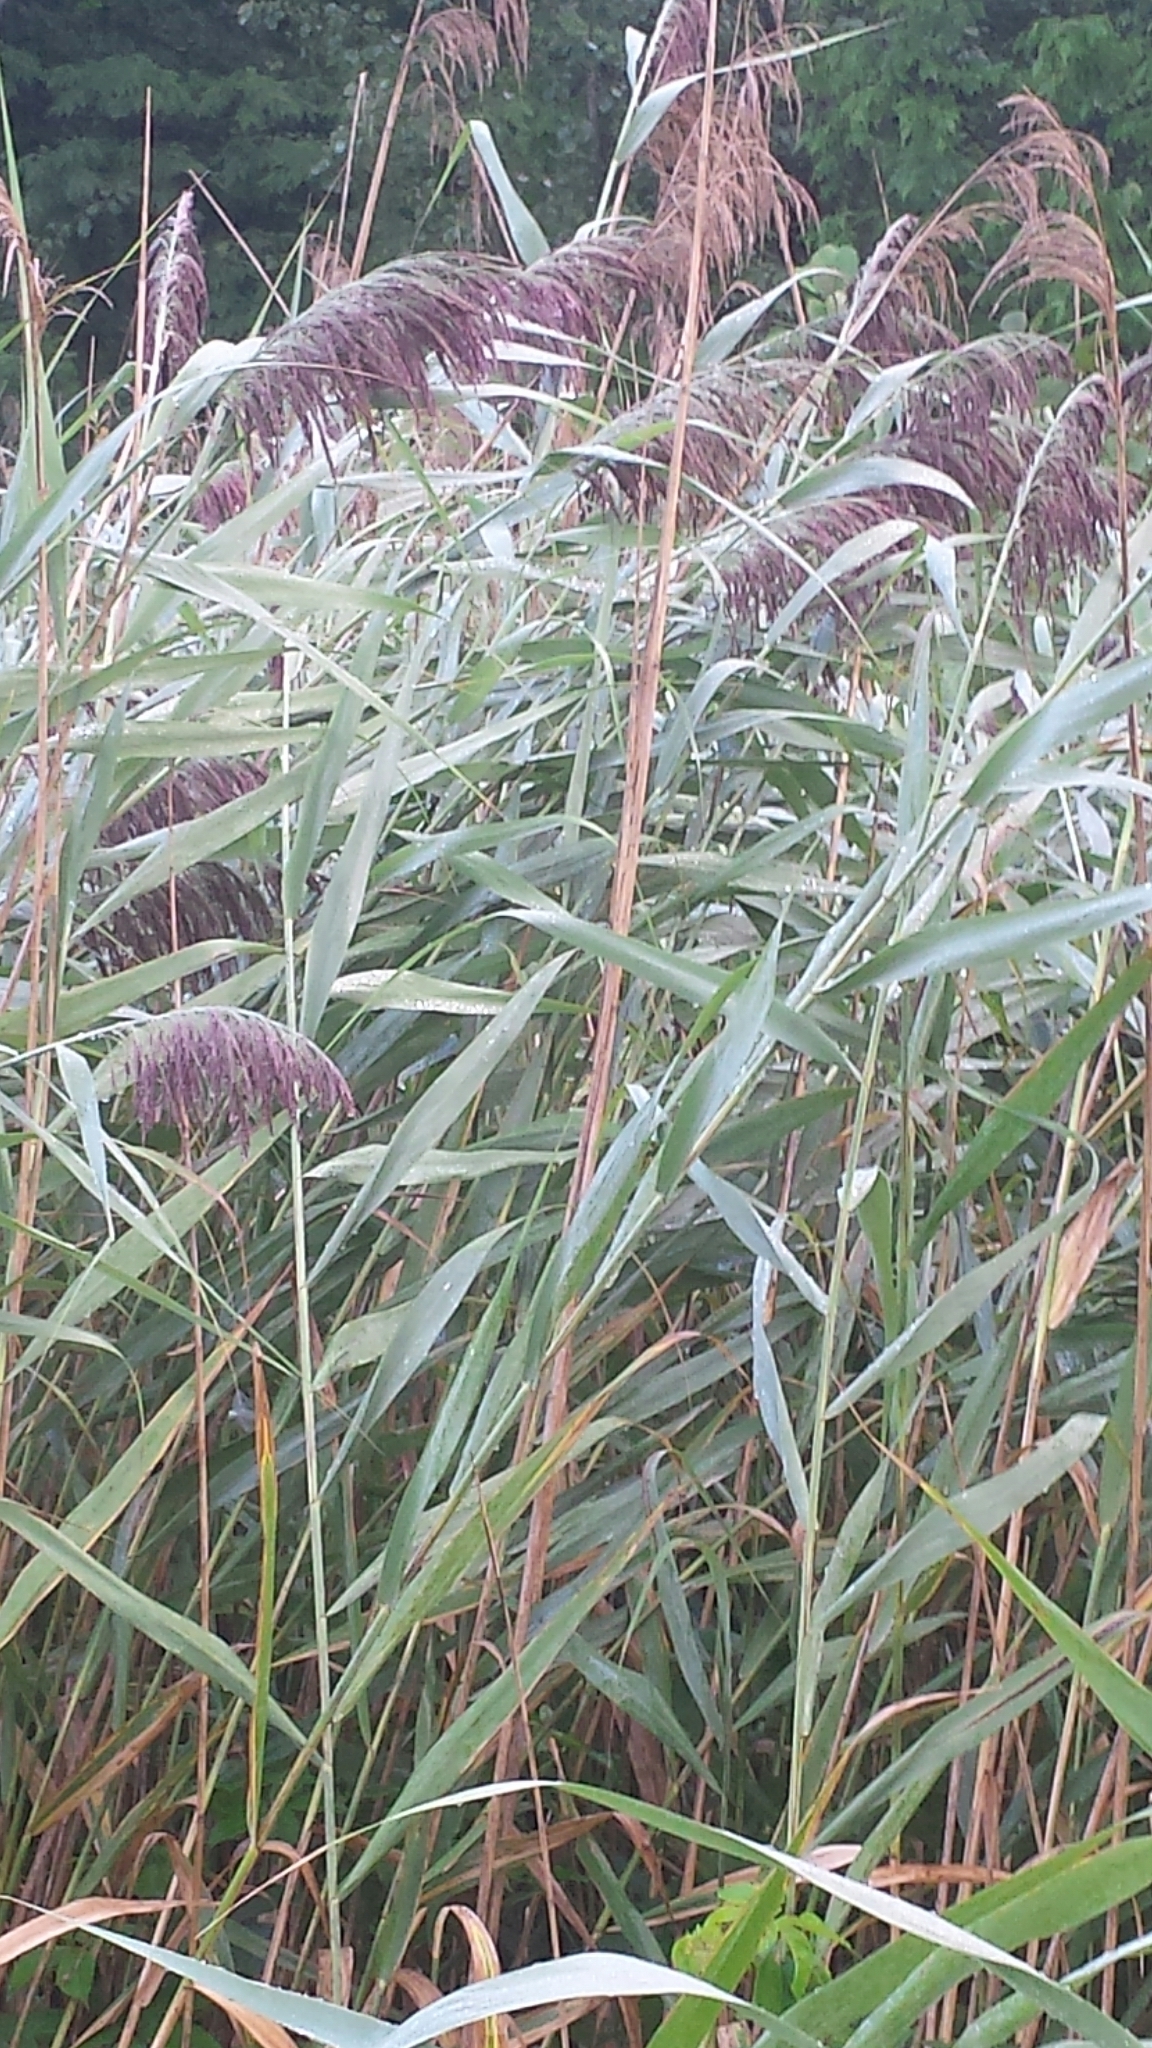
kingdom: Plantae
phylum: Tracheophyta
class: Liliopsida
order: Poales
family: Poaceae
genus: Phragmites
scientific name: Phragmites australis
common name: Common reed
